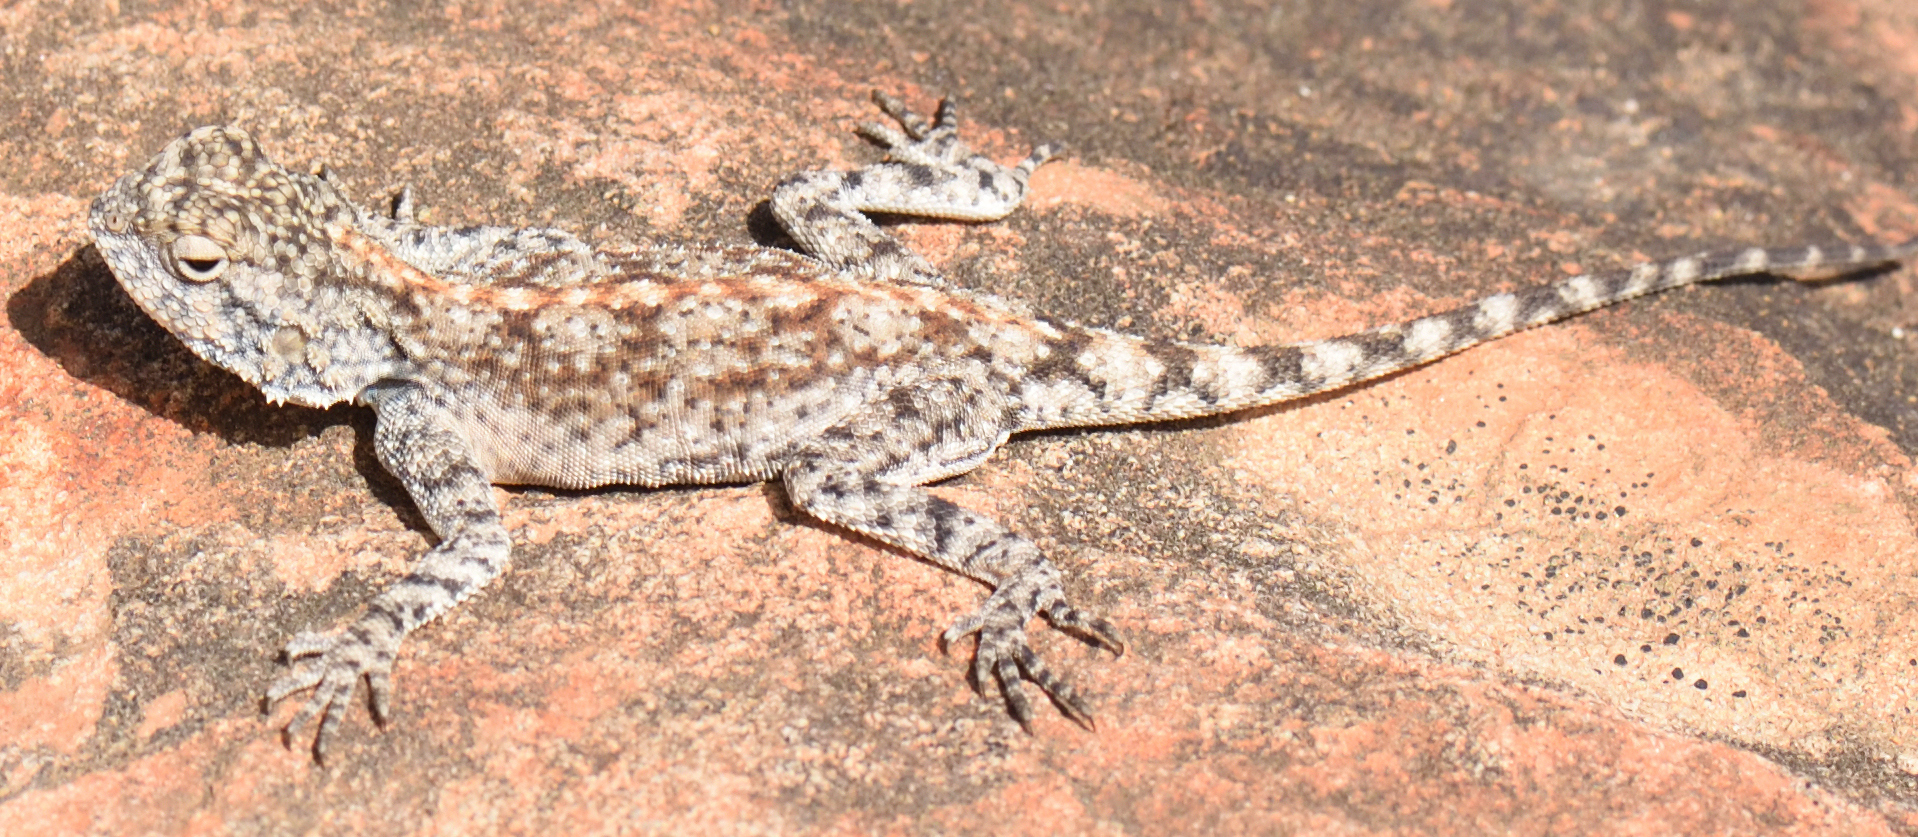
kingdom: Animalia
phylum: Chordata
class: Squamata
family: Agamidae
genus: Agama
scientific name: Agama atra
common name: Southern african rock agama
